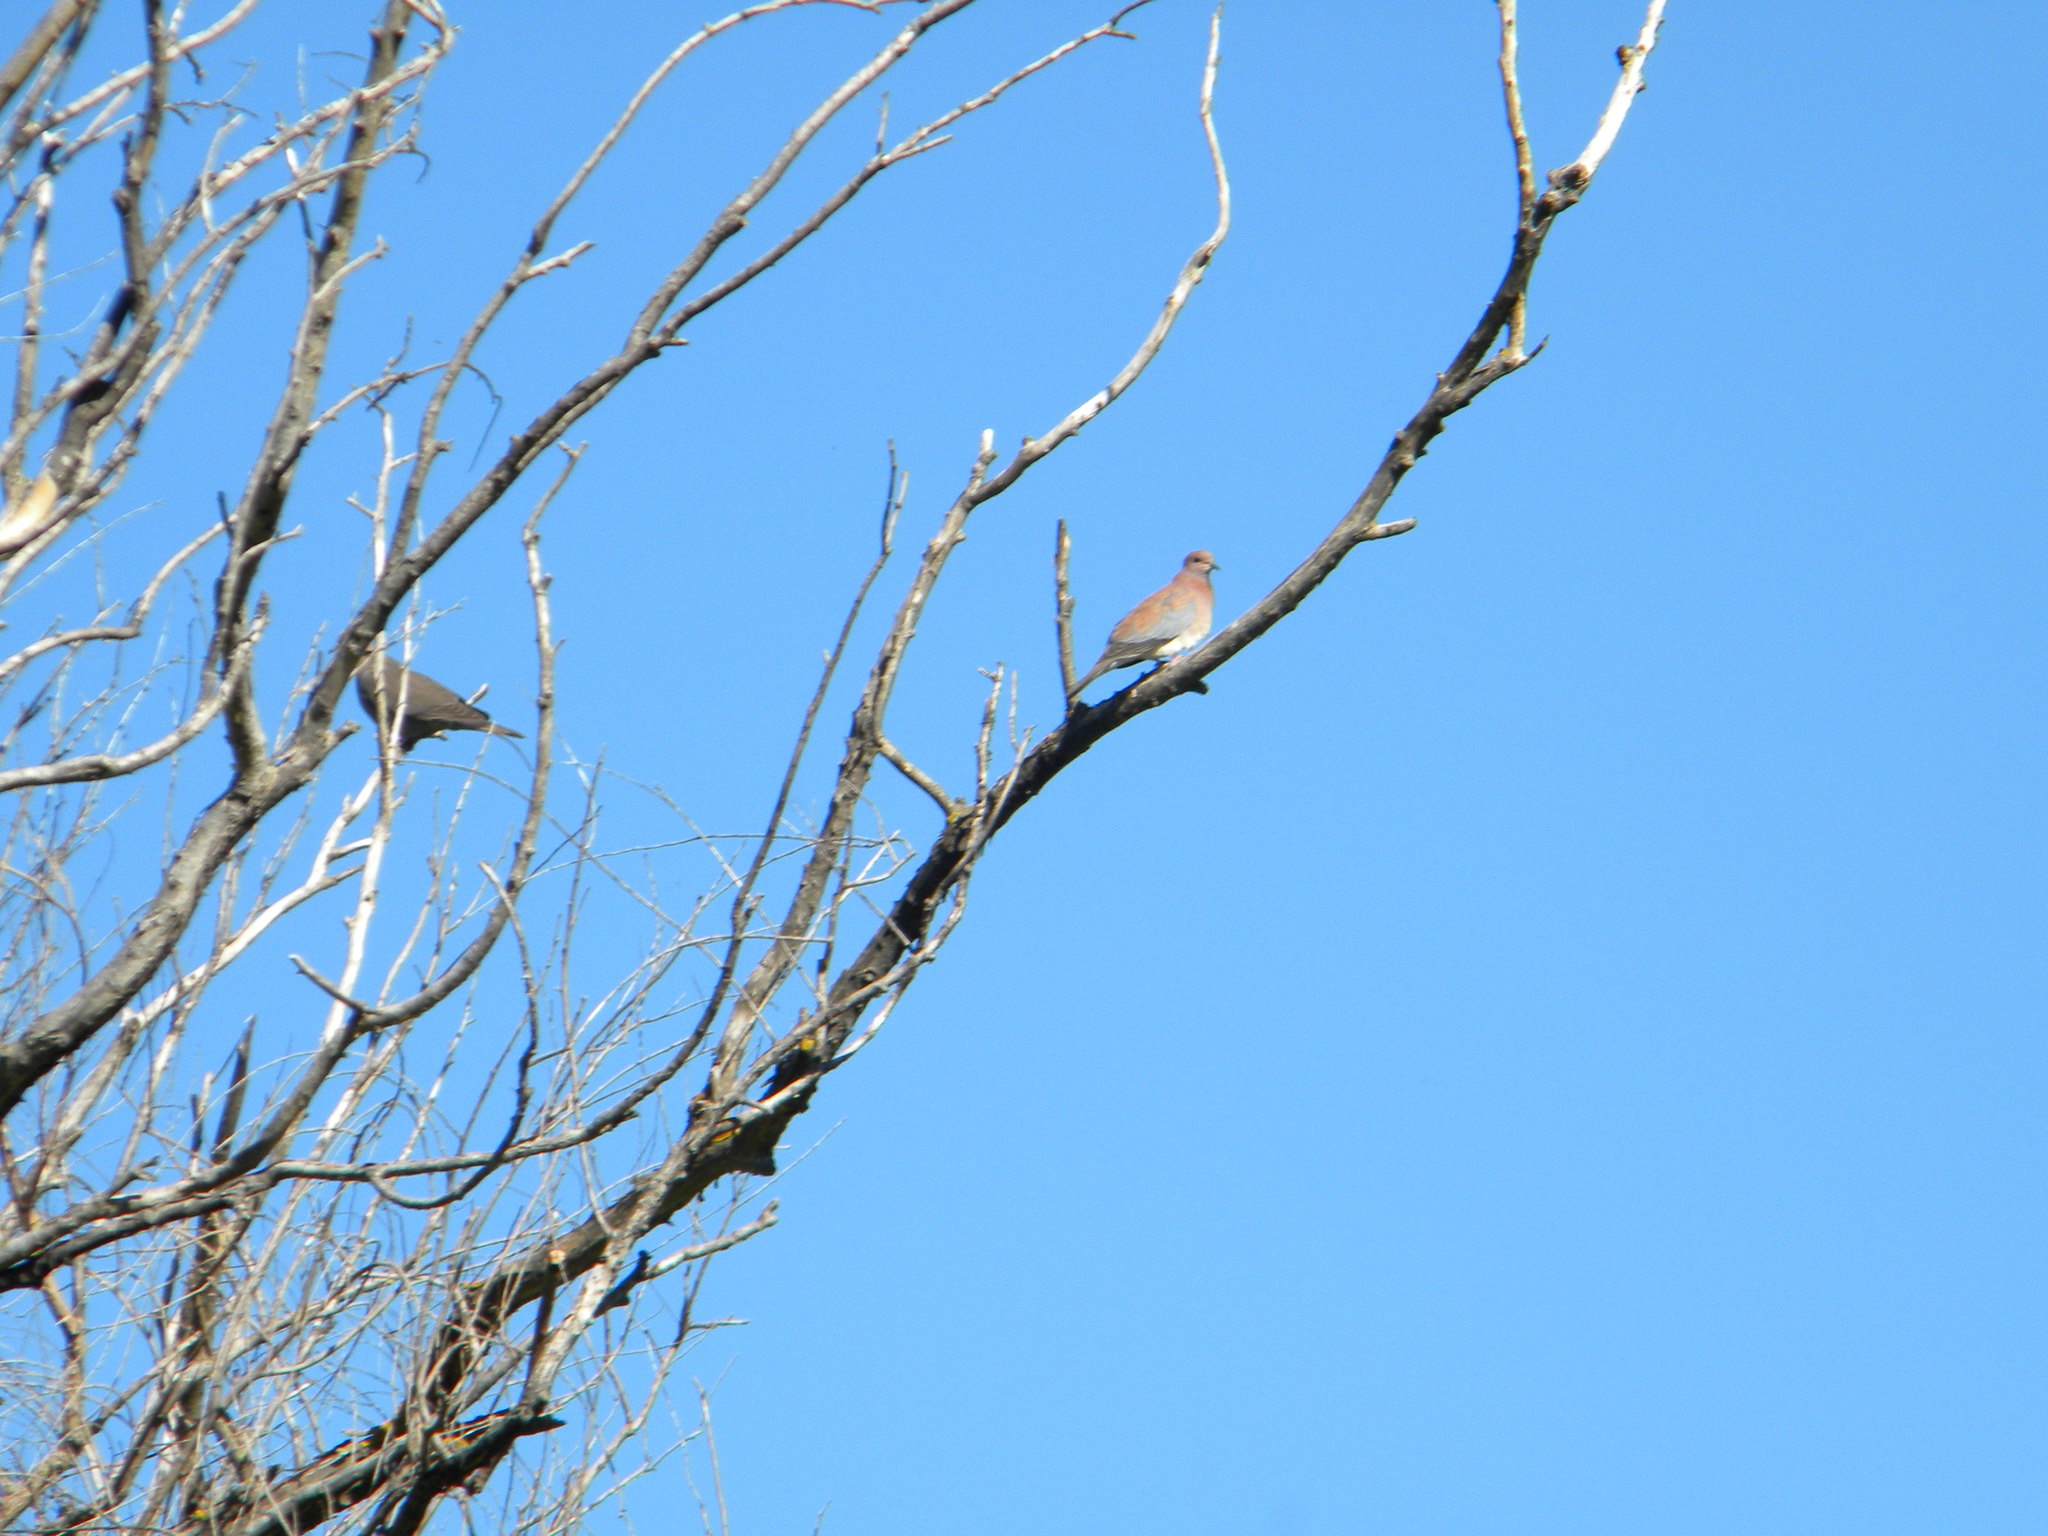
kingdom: Animalia
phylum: Chordata
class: Aves
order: Columbiformes
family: Columbidae
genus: Spilopelia
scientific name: Spilopelia senegalensis
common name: Laughing dove
